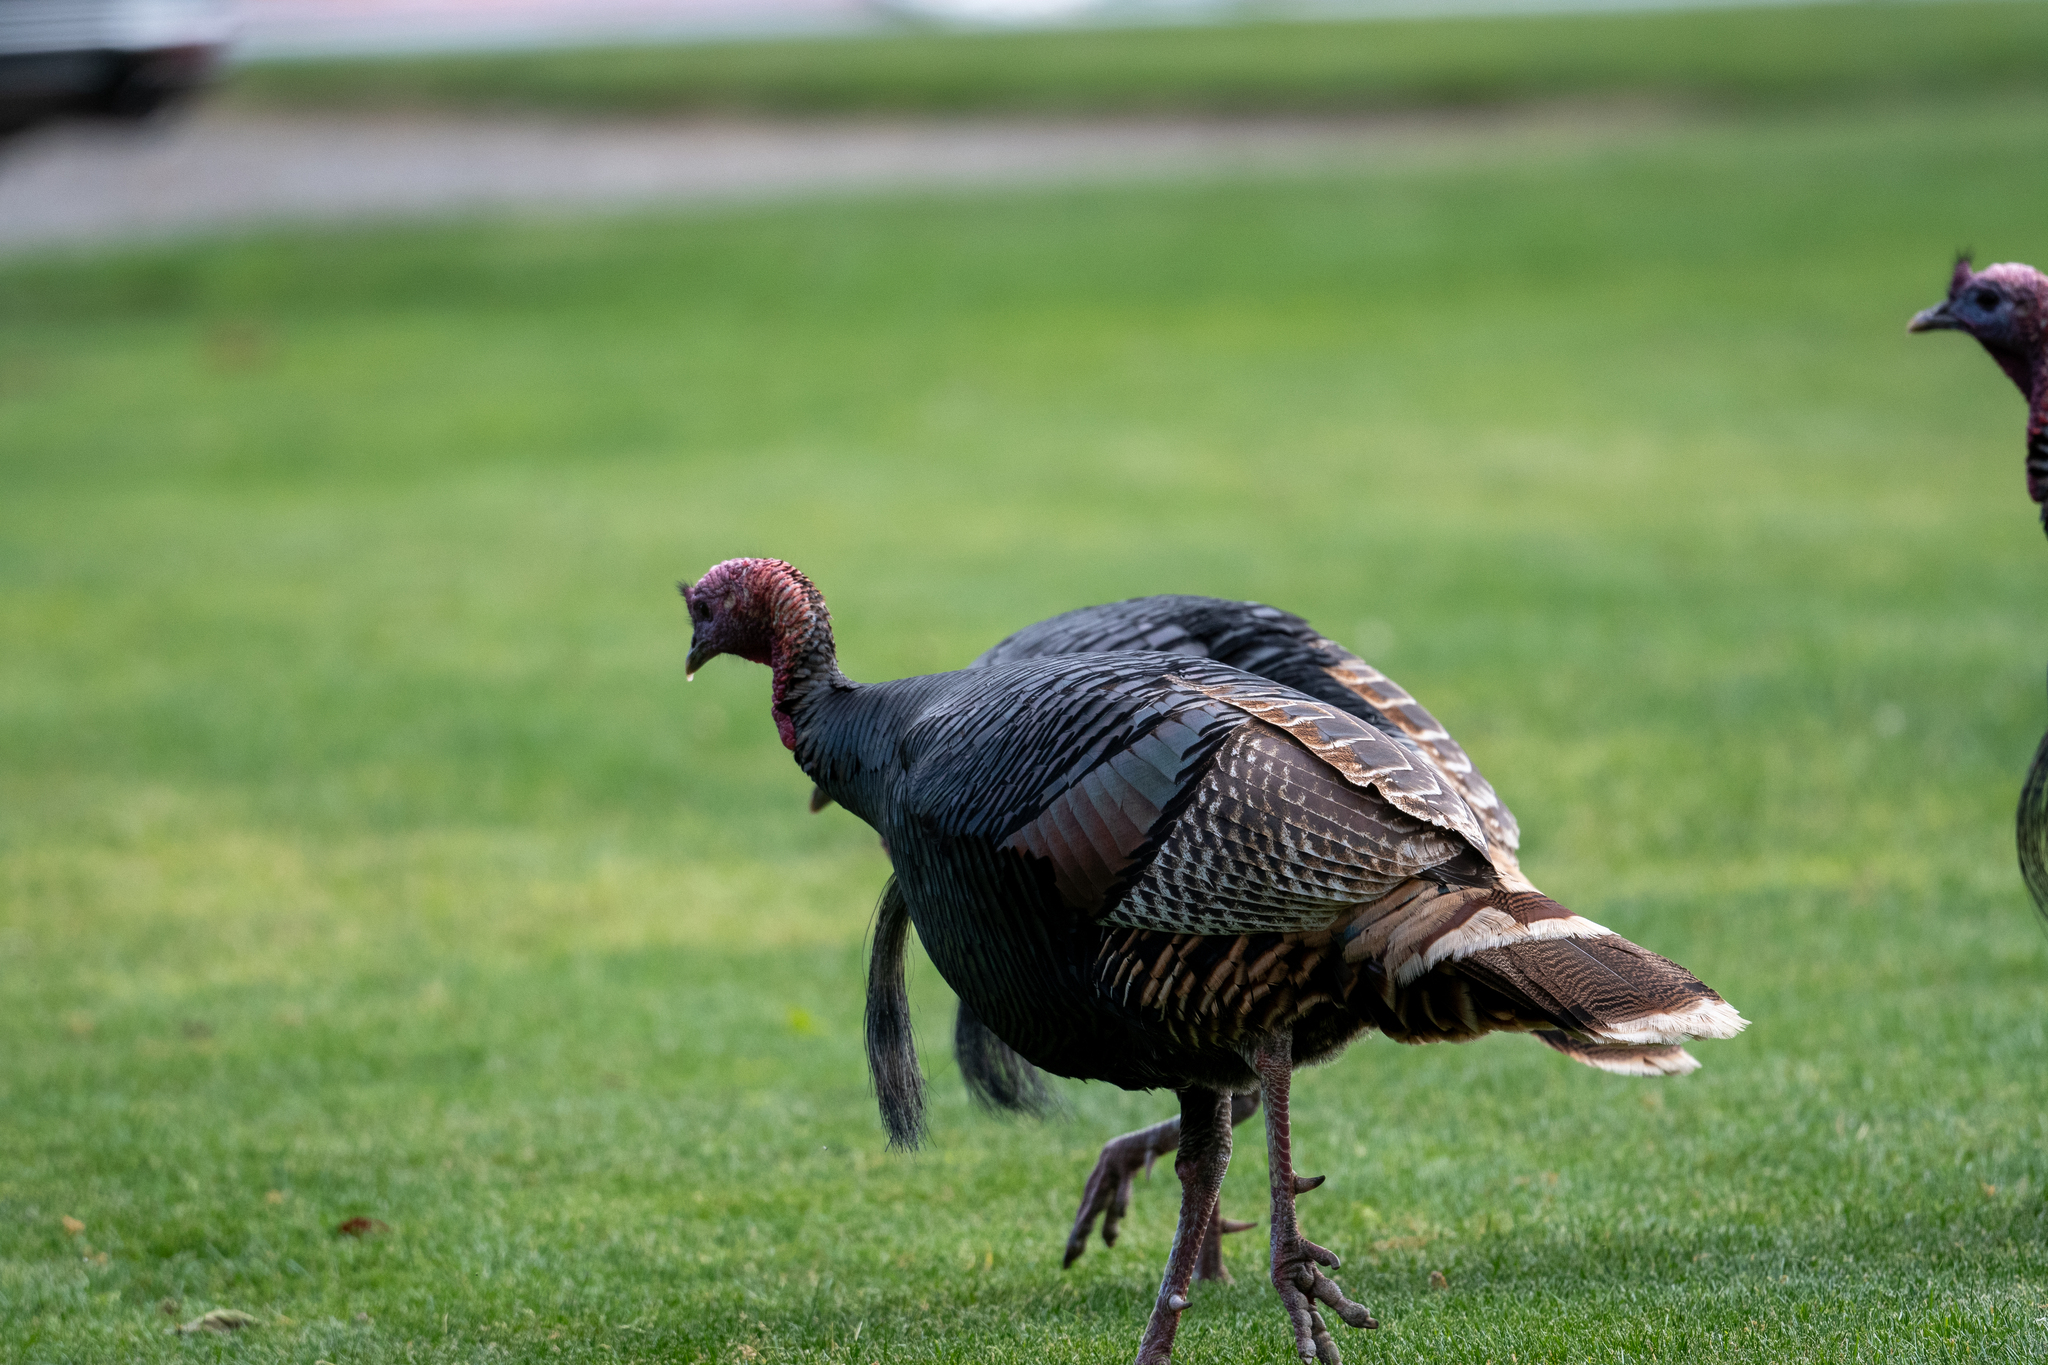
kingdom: Animalia
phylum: Chordata
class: Aves
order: Galliformes
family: Phasianidae
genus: Meleagris
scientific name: Meleagris gallopavo
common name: Wild turkey
